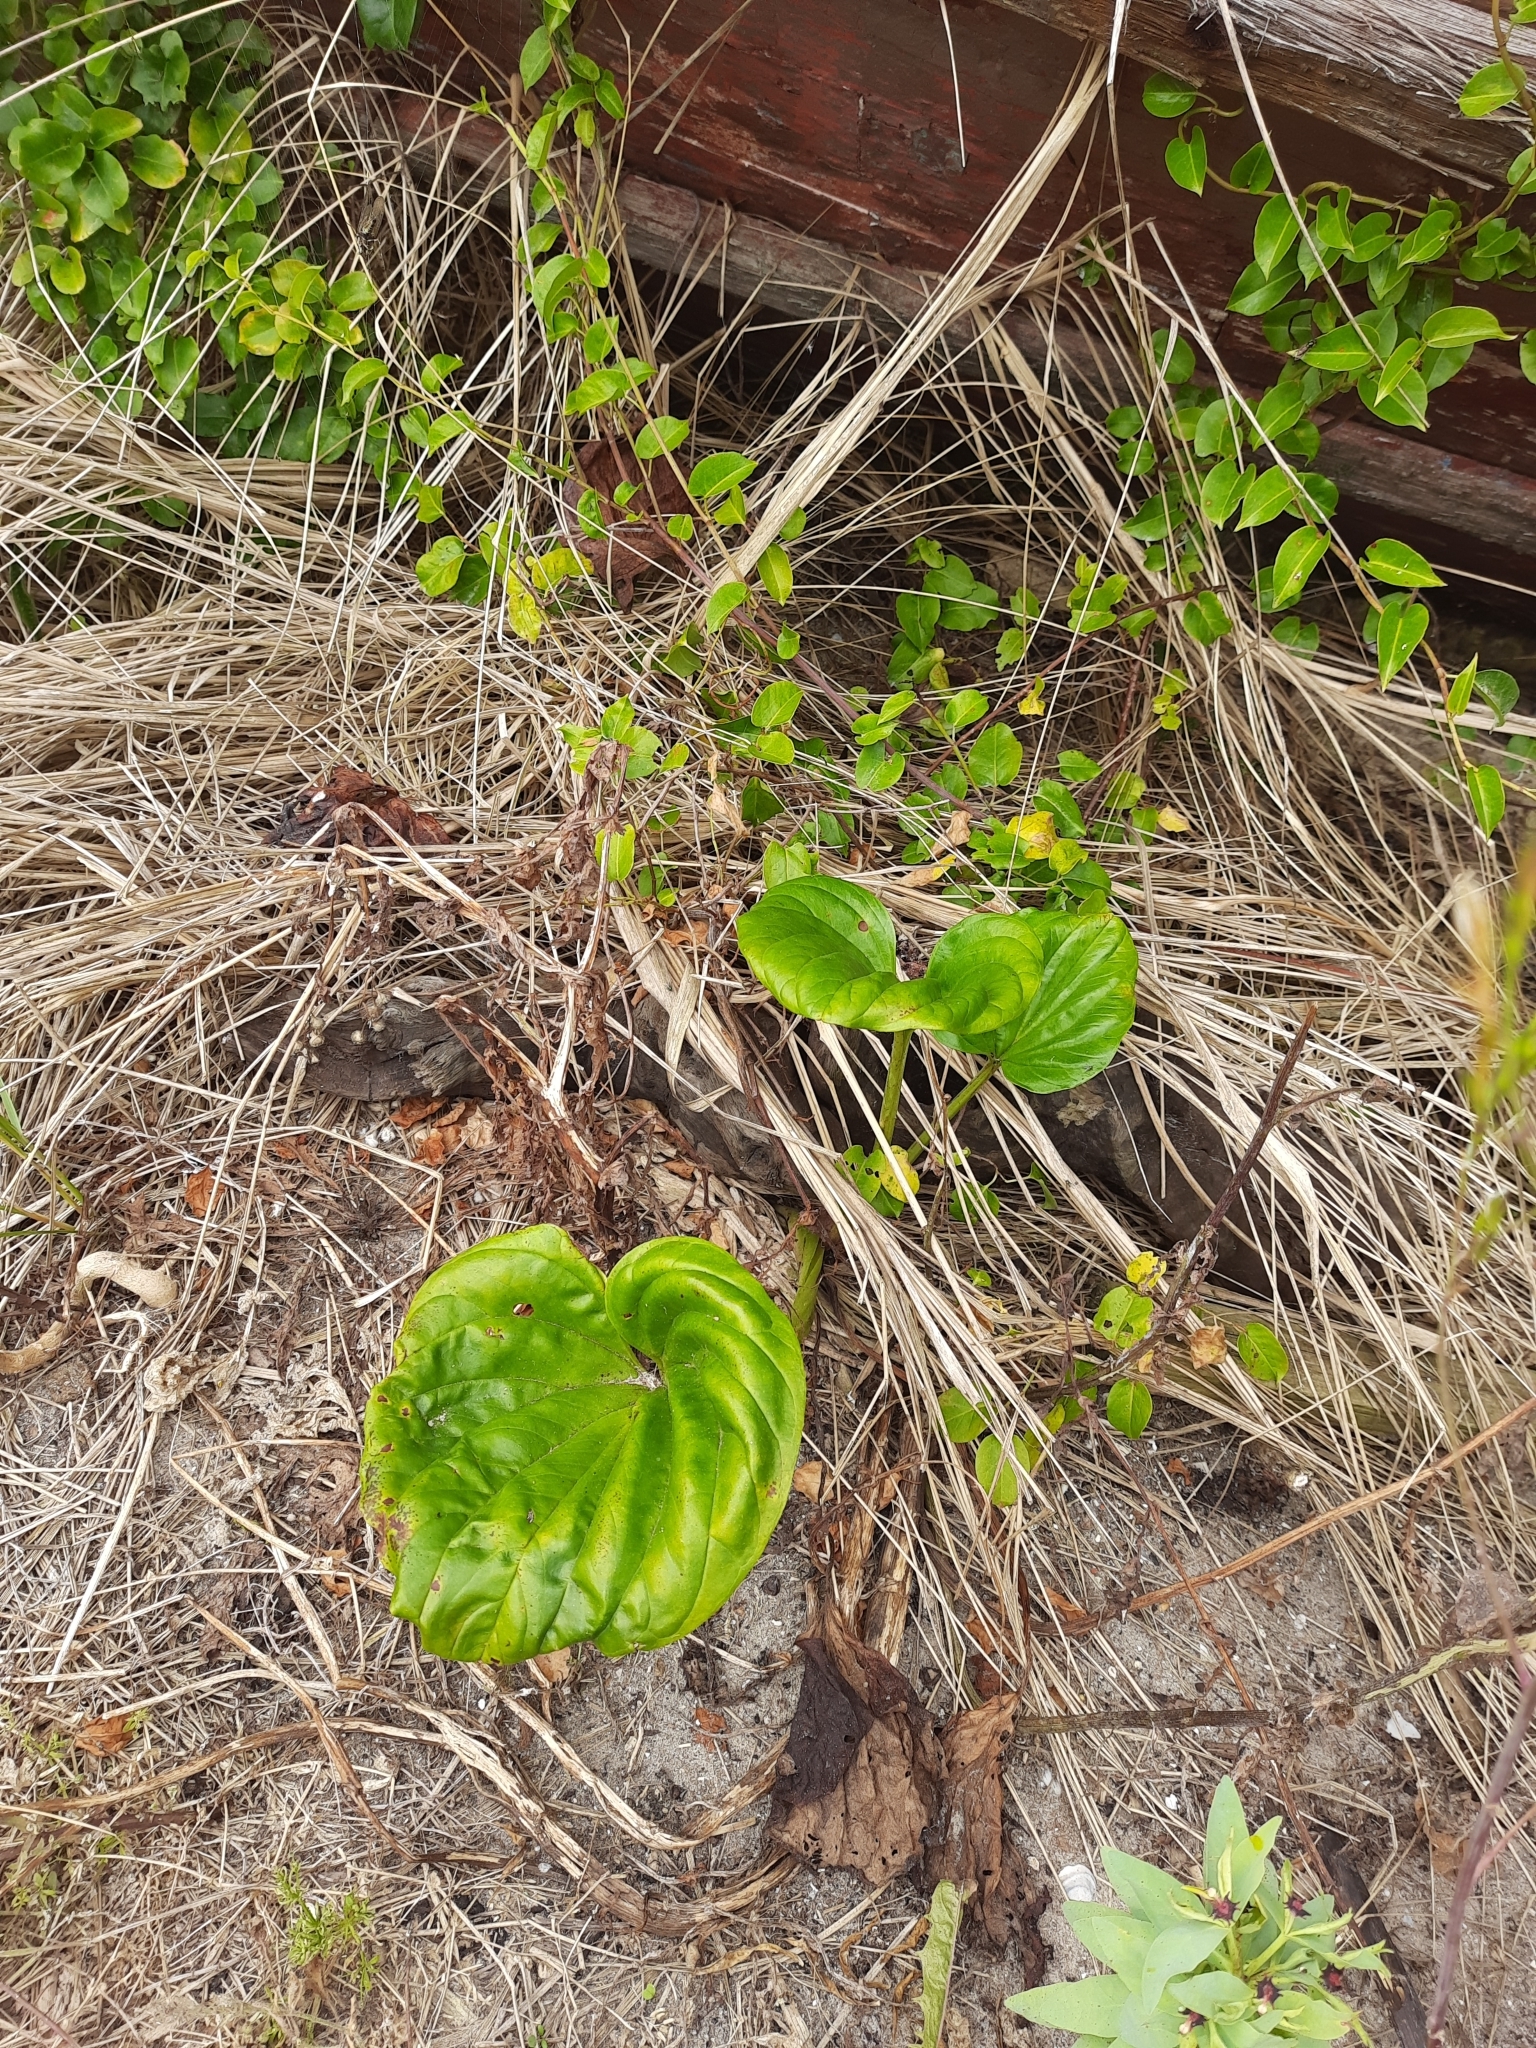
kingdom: Plantae
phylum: Tracheophyta
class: Magnoliopsida
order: Boraginales
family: Boraginaceae
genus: Myosotidium
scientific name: Myosotidium hortensia
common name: Giant forget-me-not
